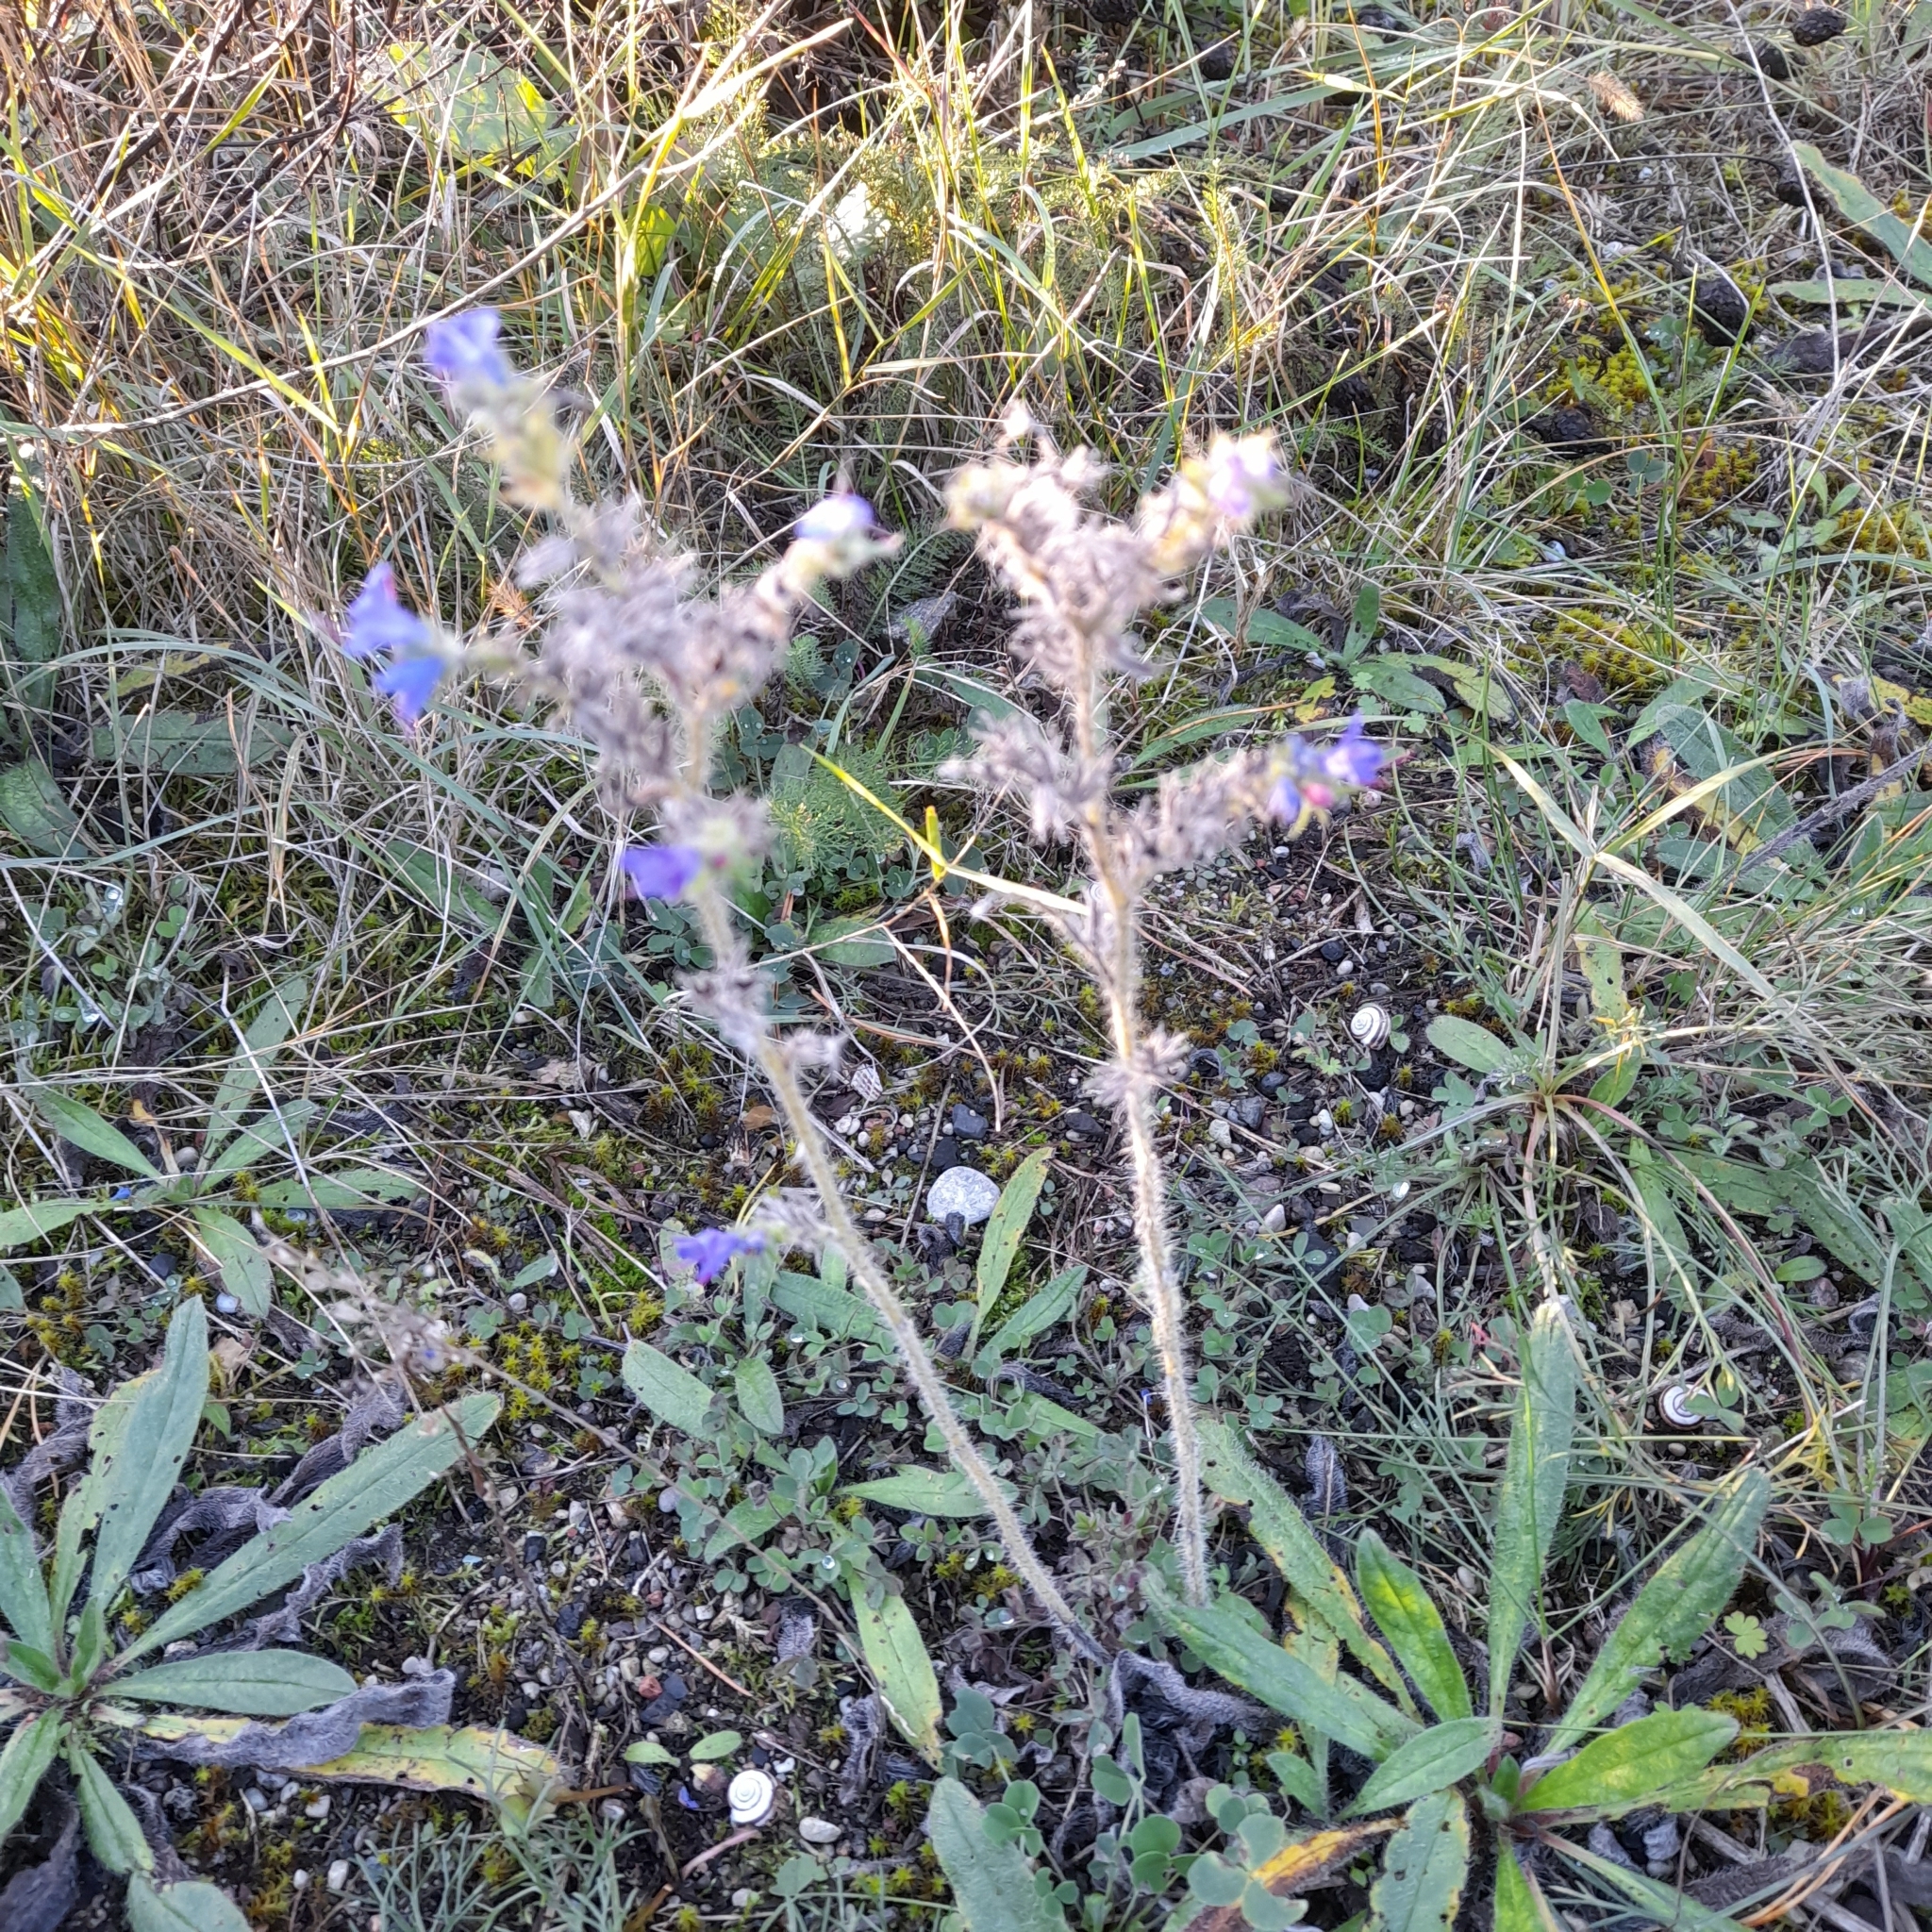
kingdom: Plantae
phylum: Tracheophyta
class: Magnoliopsida
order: Boraginales
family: Boraginaceae
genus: Echium
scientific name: Echium vulgare
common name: Common viper's bugloss
